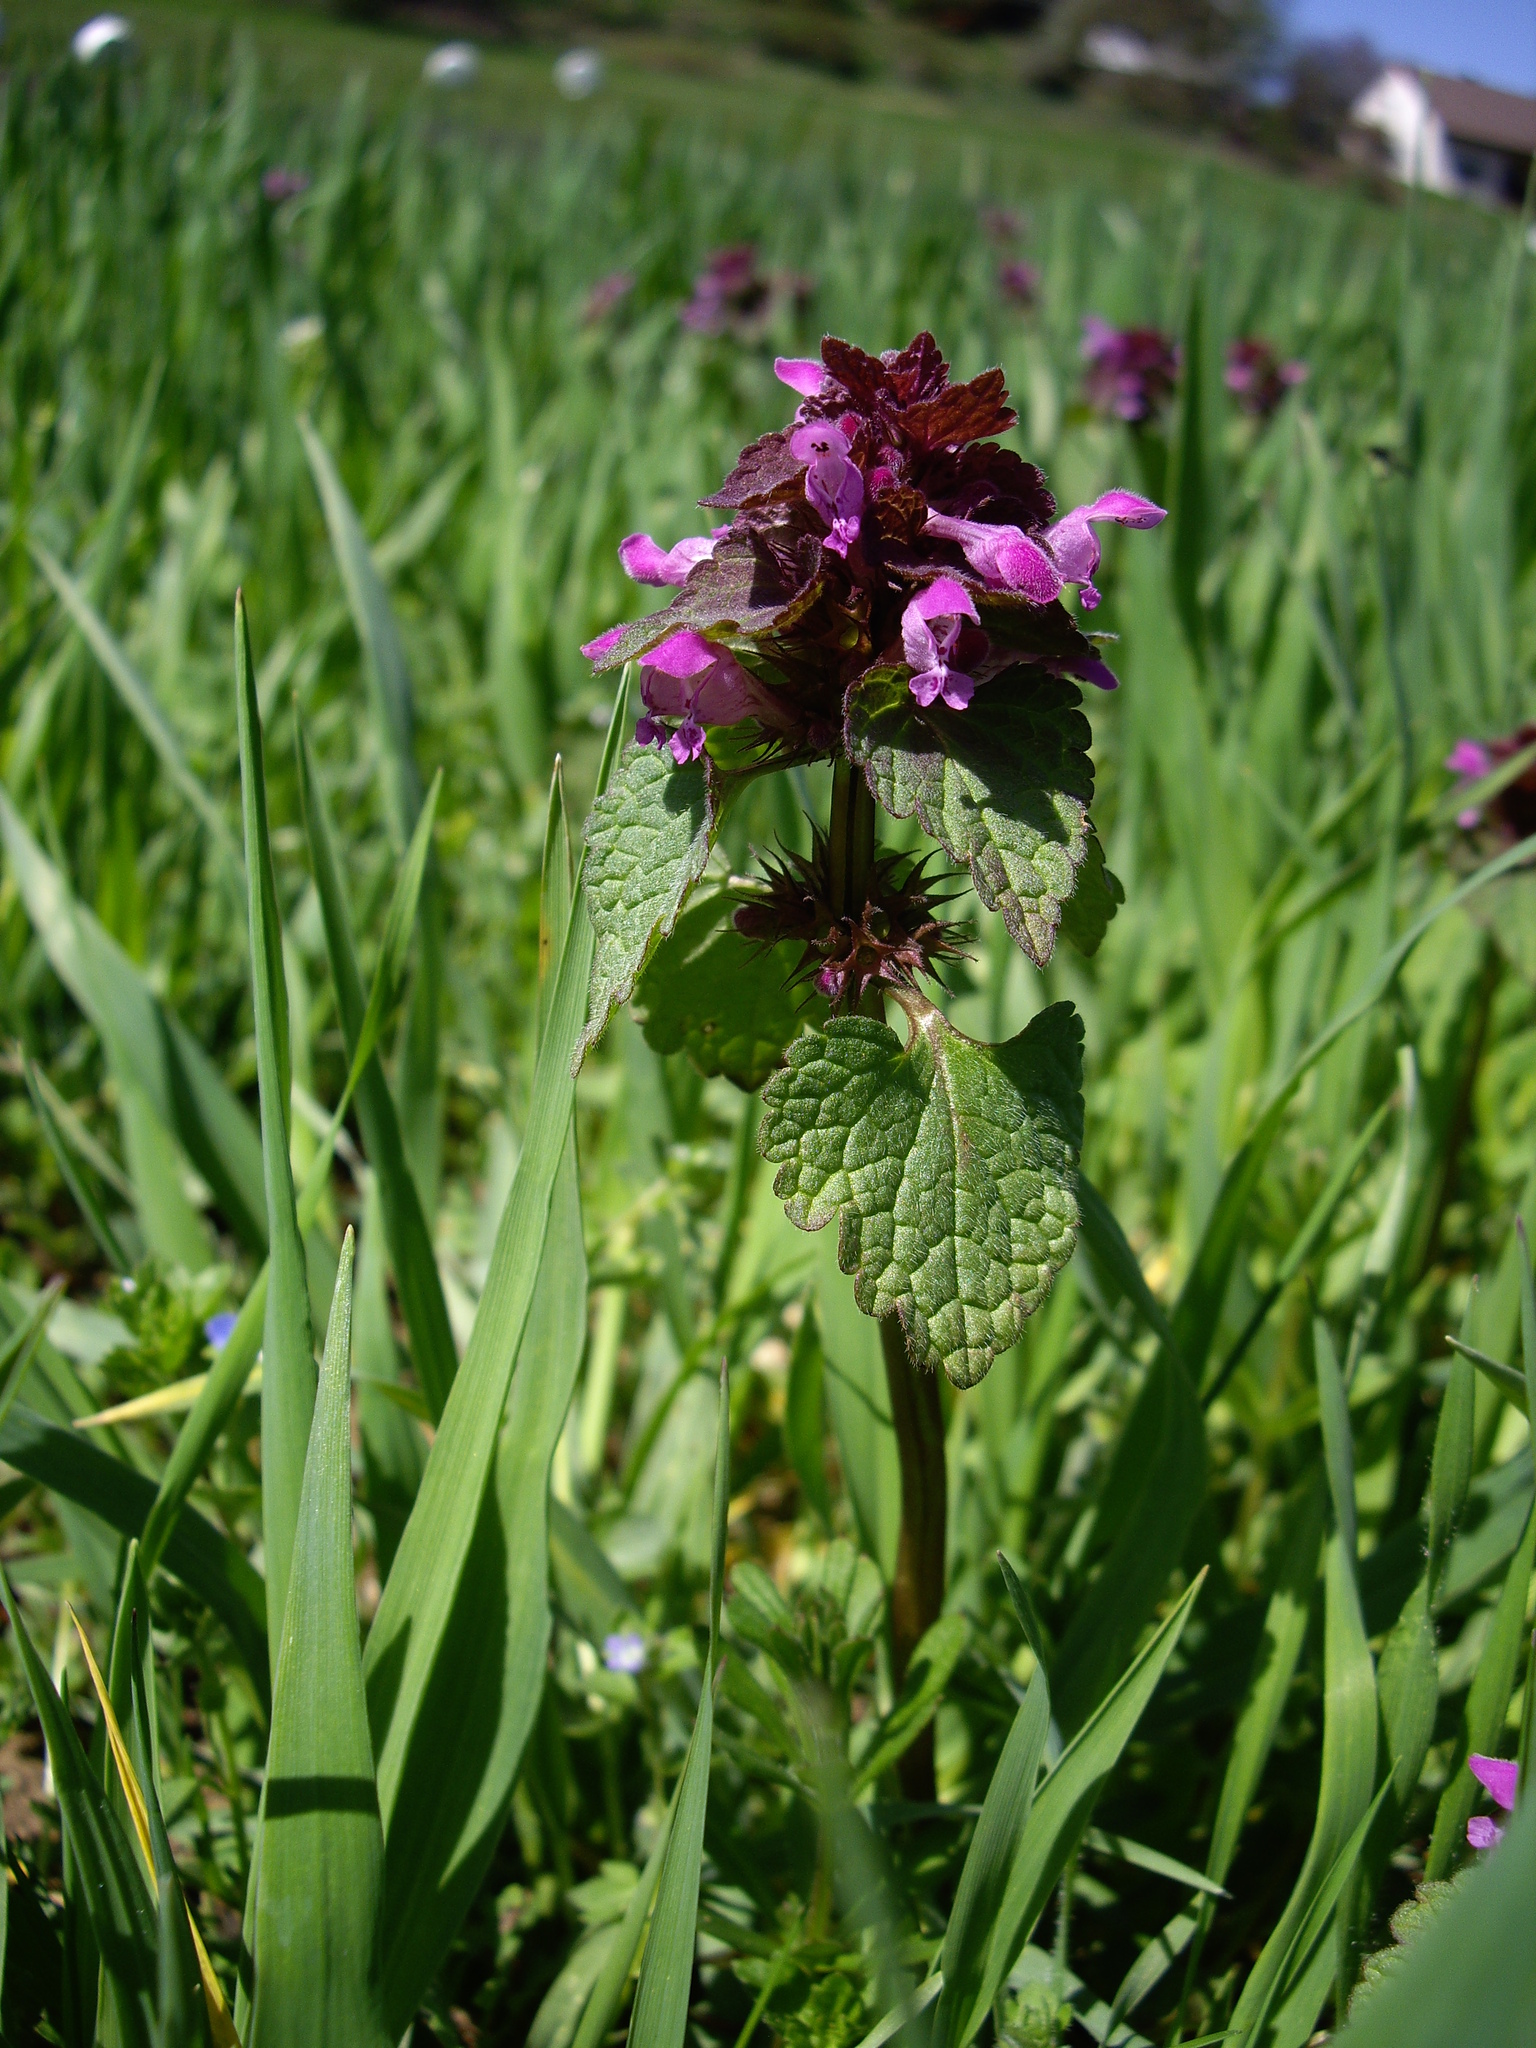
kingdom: Plantae
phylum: Tracheophyta
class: Magnoliopsida
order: Lamiales
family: Lamiaceae
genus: Lamium
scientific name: Lamium purpureum
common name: Red dead-nettle
